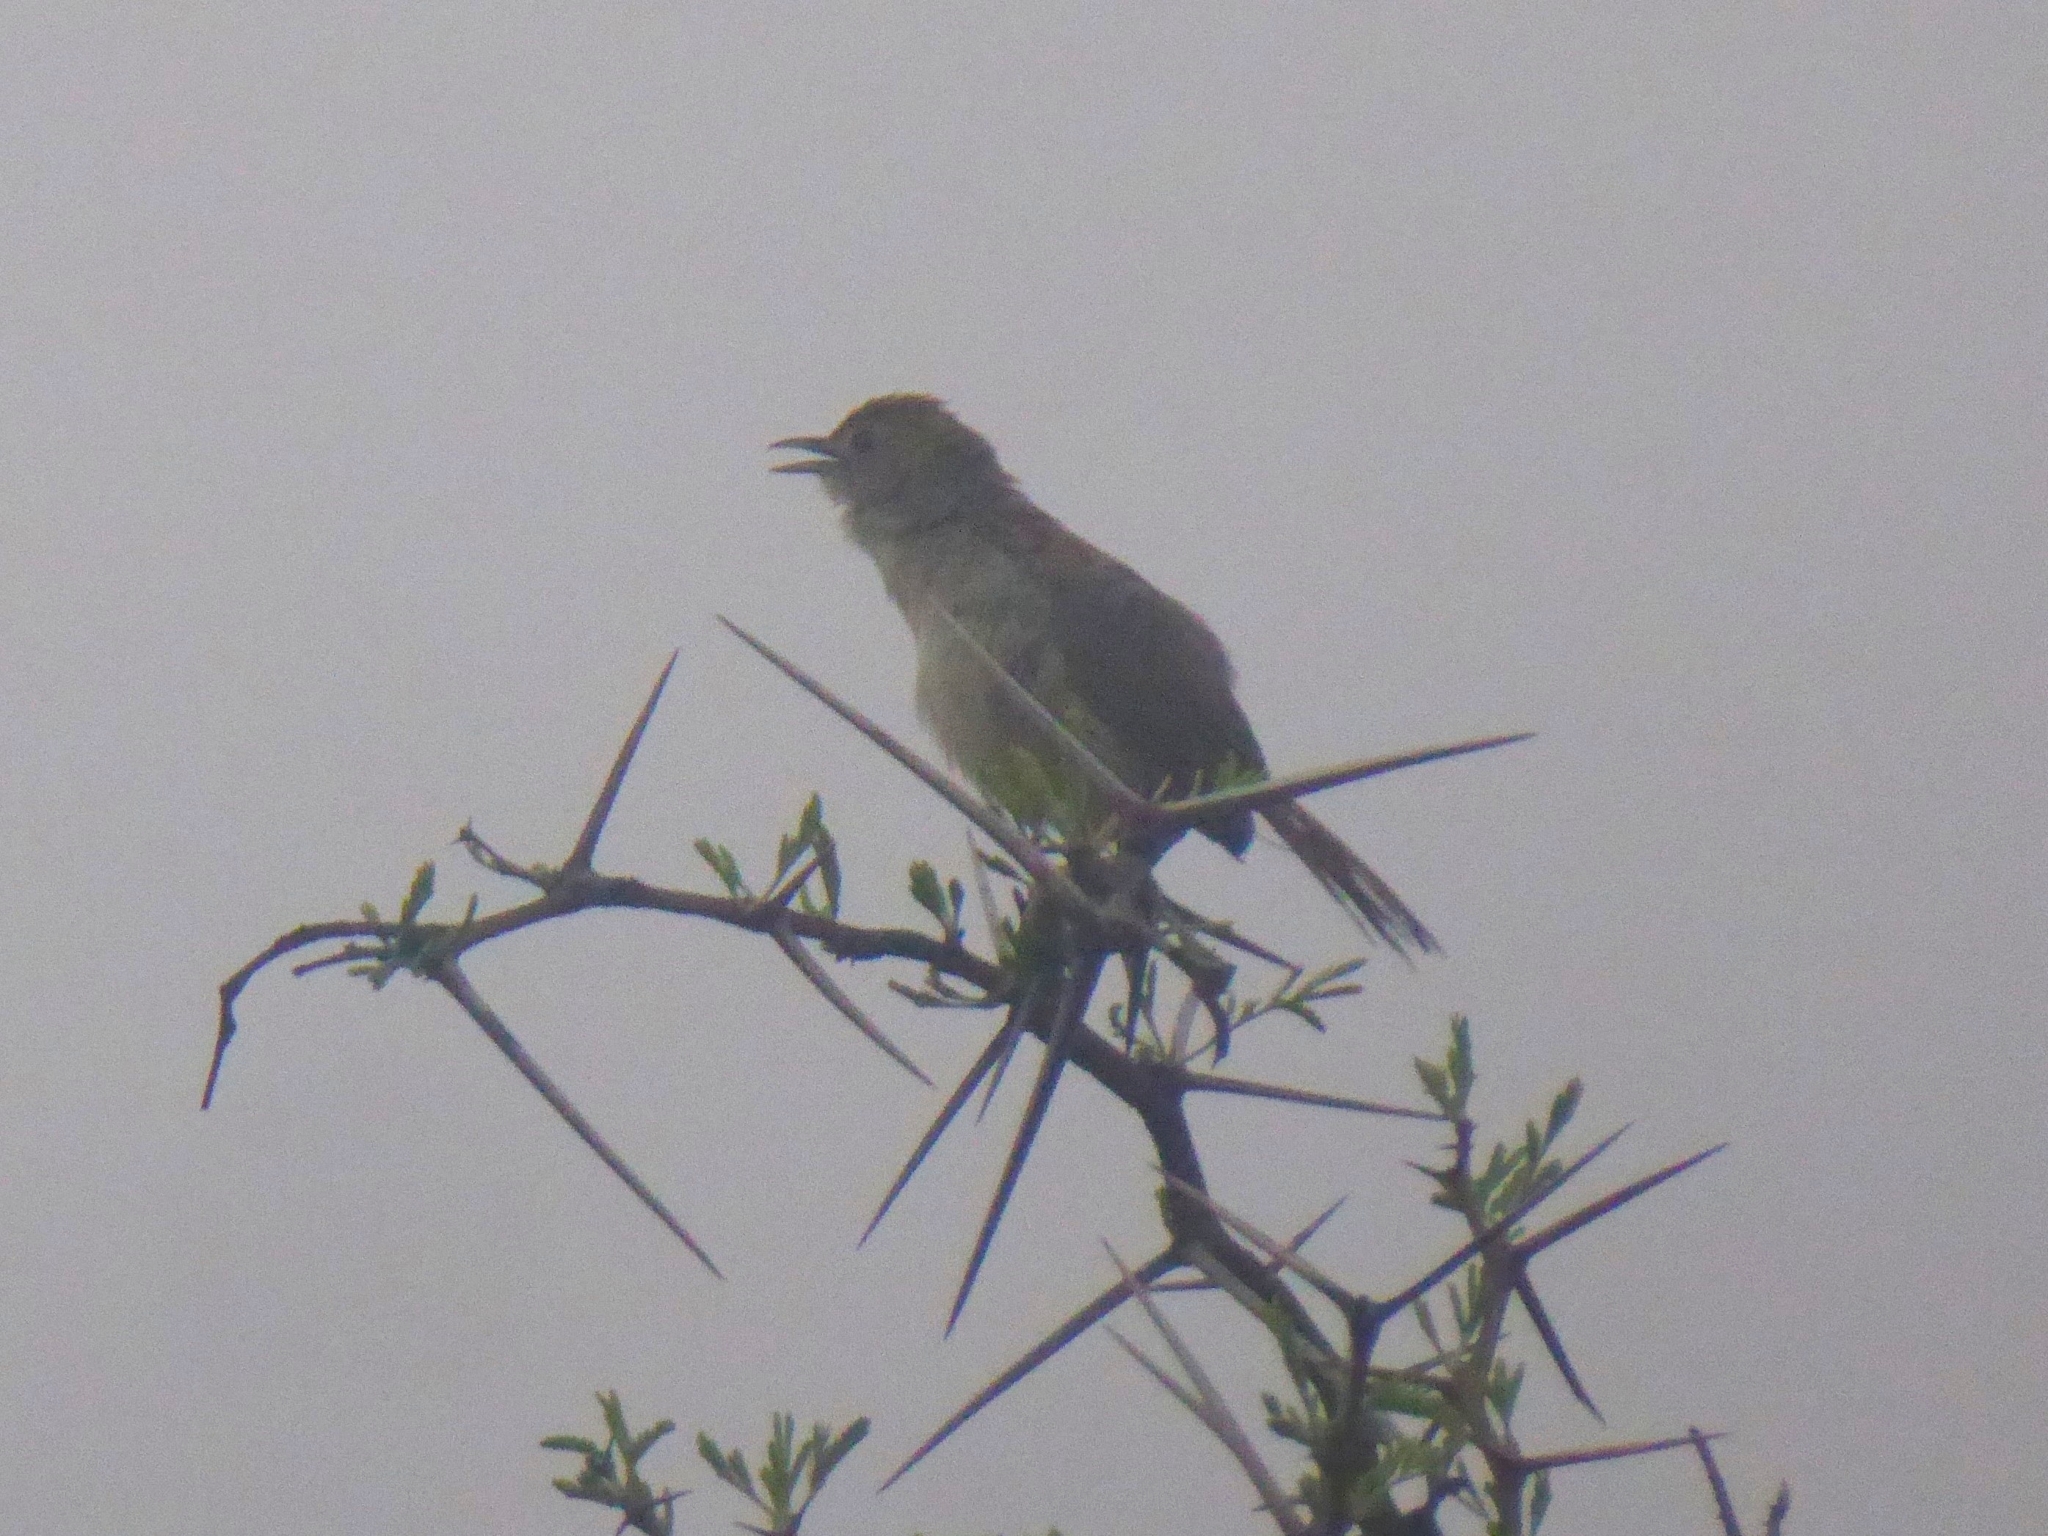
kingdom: Animalia
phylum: Chordata
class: Aves
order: Passeriformes
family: Cisticolidae
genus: Cisticola
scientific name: Cisticola chiniana
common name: Rattling cisticola
